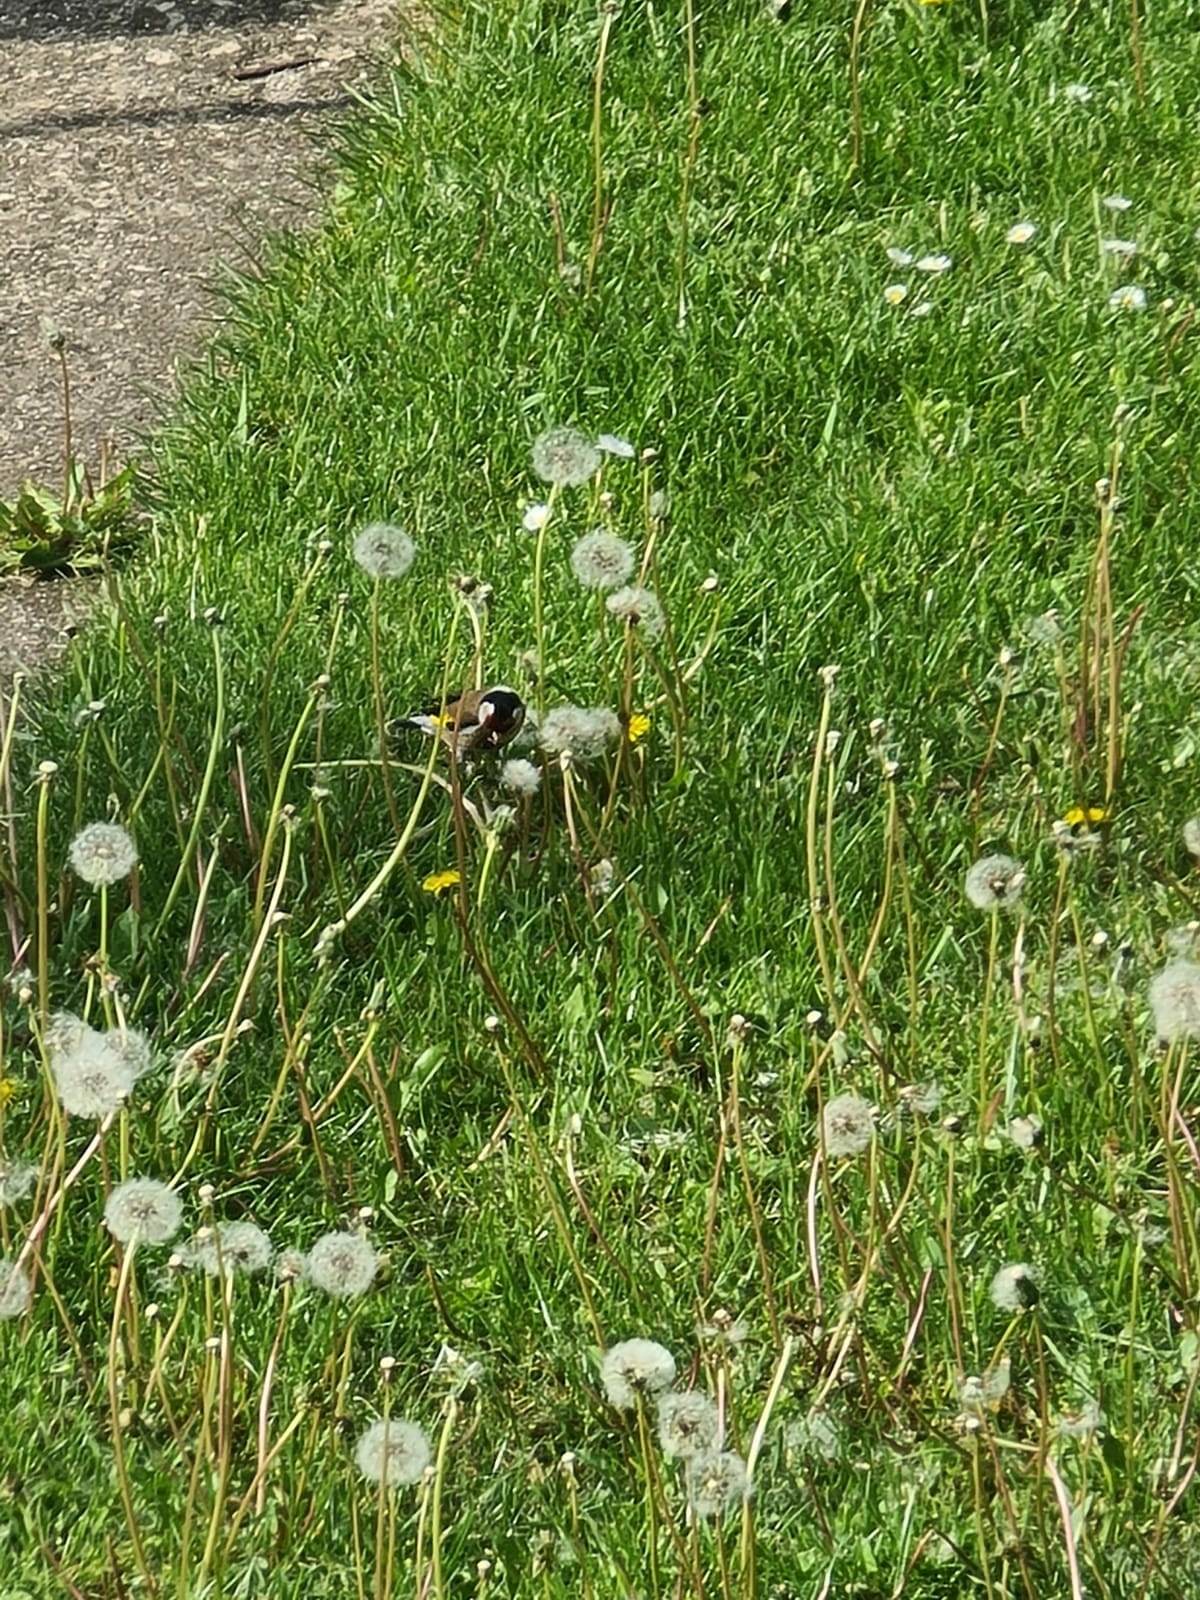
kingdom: Animalia
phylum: Chordata
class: Aves
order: Passeriformes
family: Fringillidae
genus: Carduelis
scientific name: Carduelis carduelis
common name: European goldfinch
